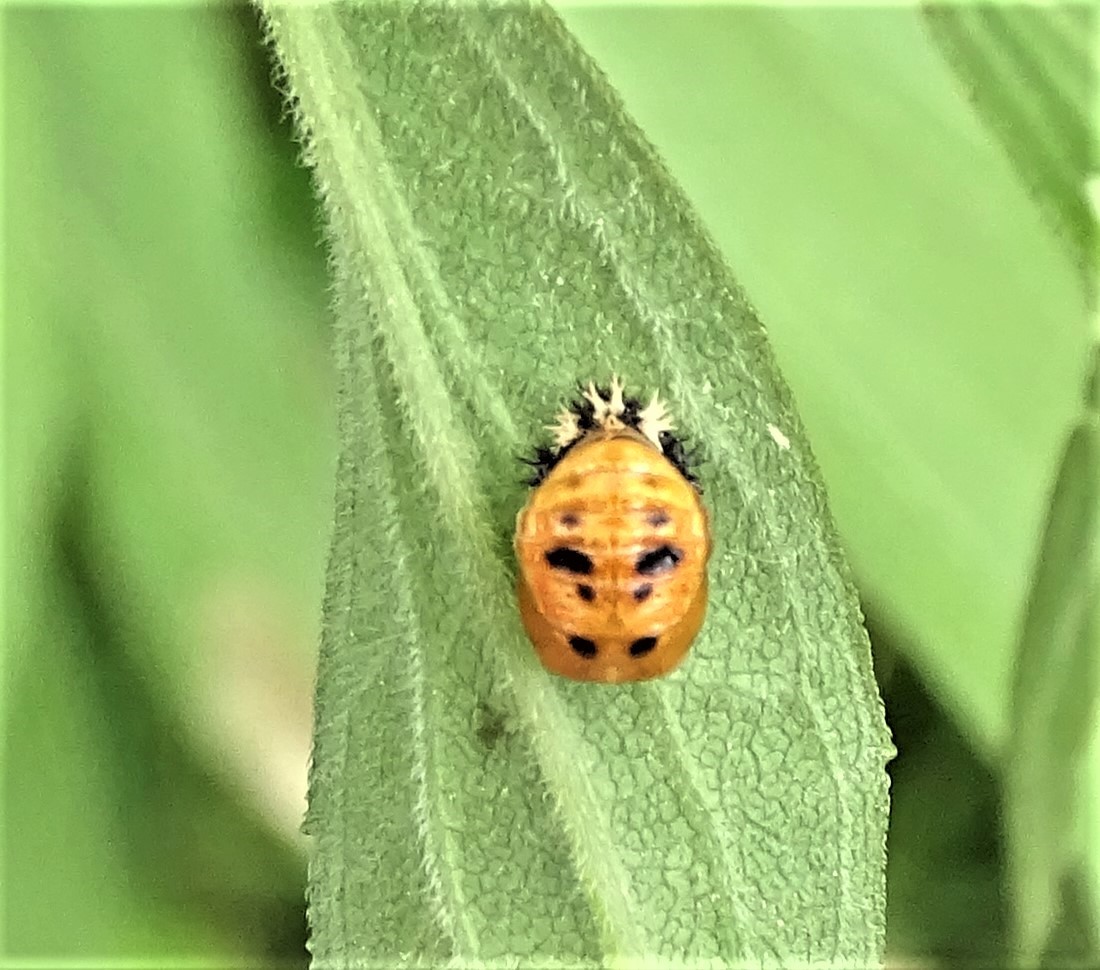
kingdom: Animalia
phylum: Arthropoda
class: Insecta
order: Coleoptera
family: Coccinellidae
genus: Harmonia
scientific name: Harmonia axyridis
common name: Harlequin ladybird
